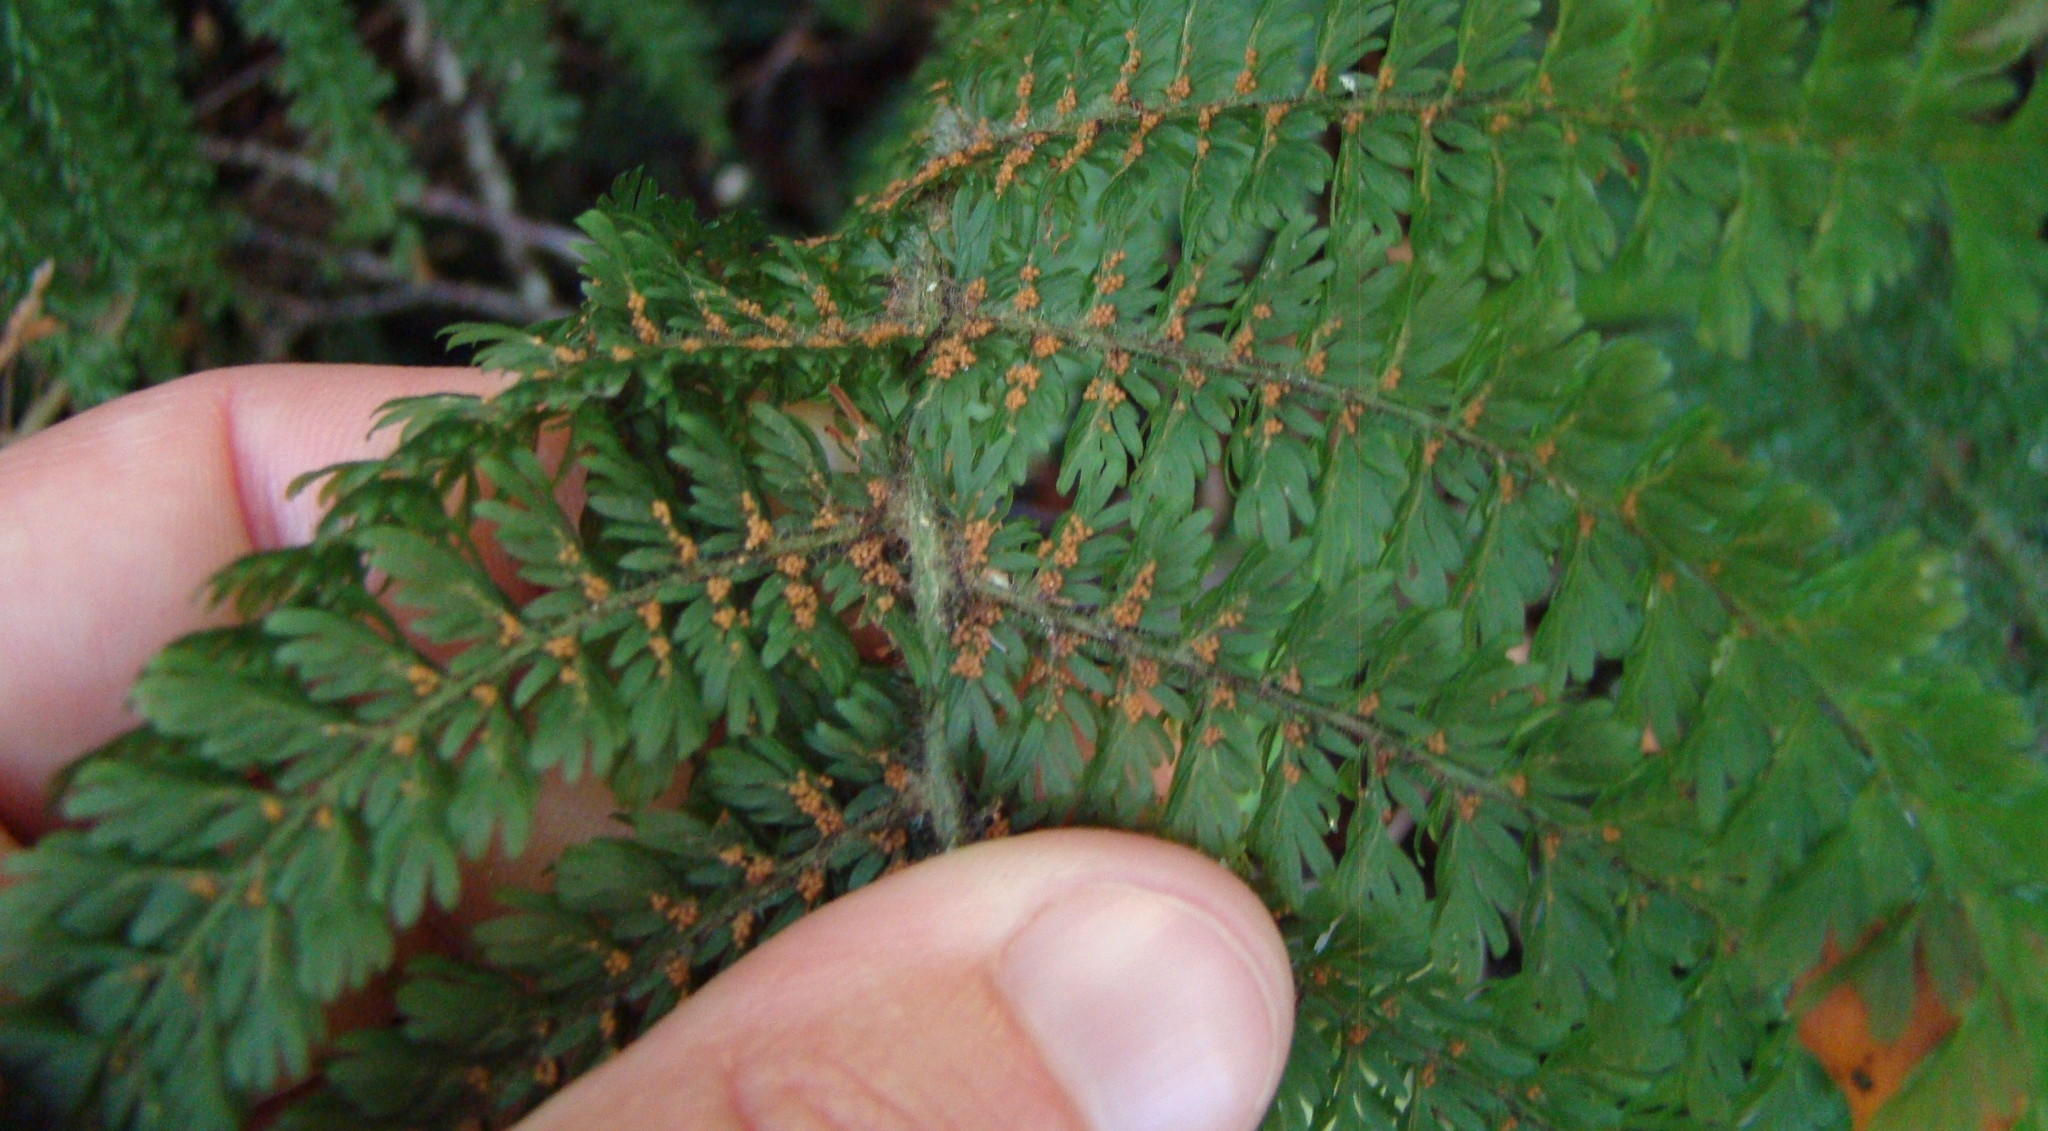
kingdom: Plantae
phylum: Tracheophyta
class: Polypodiopsida
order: Osmundales
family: Osmundaceae
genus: Leptopteris
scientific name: Leptopteris superba
